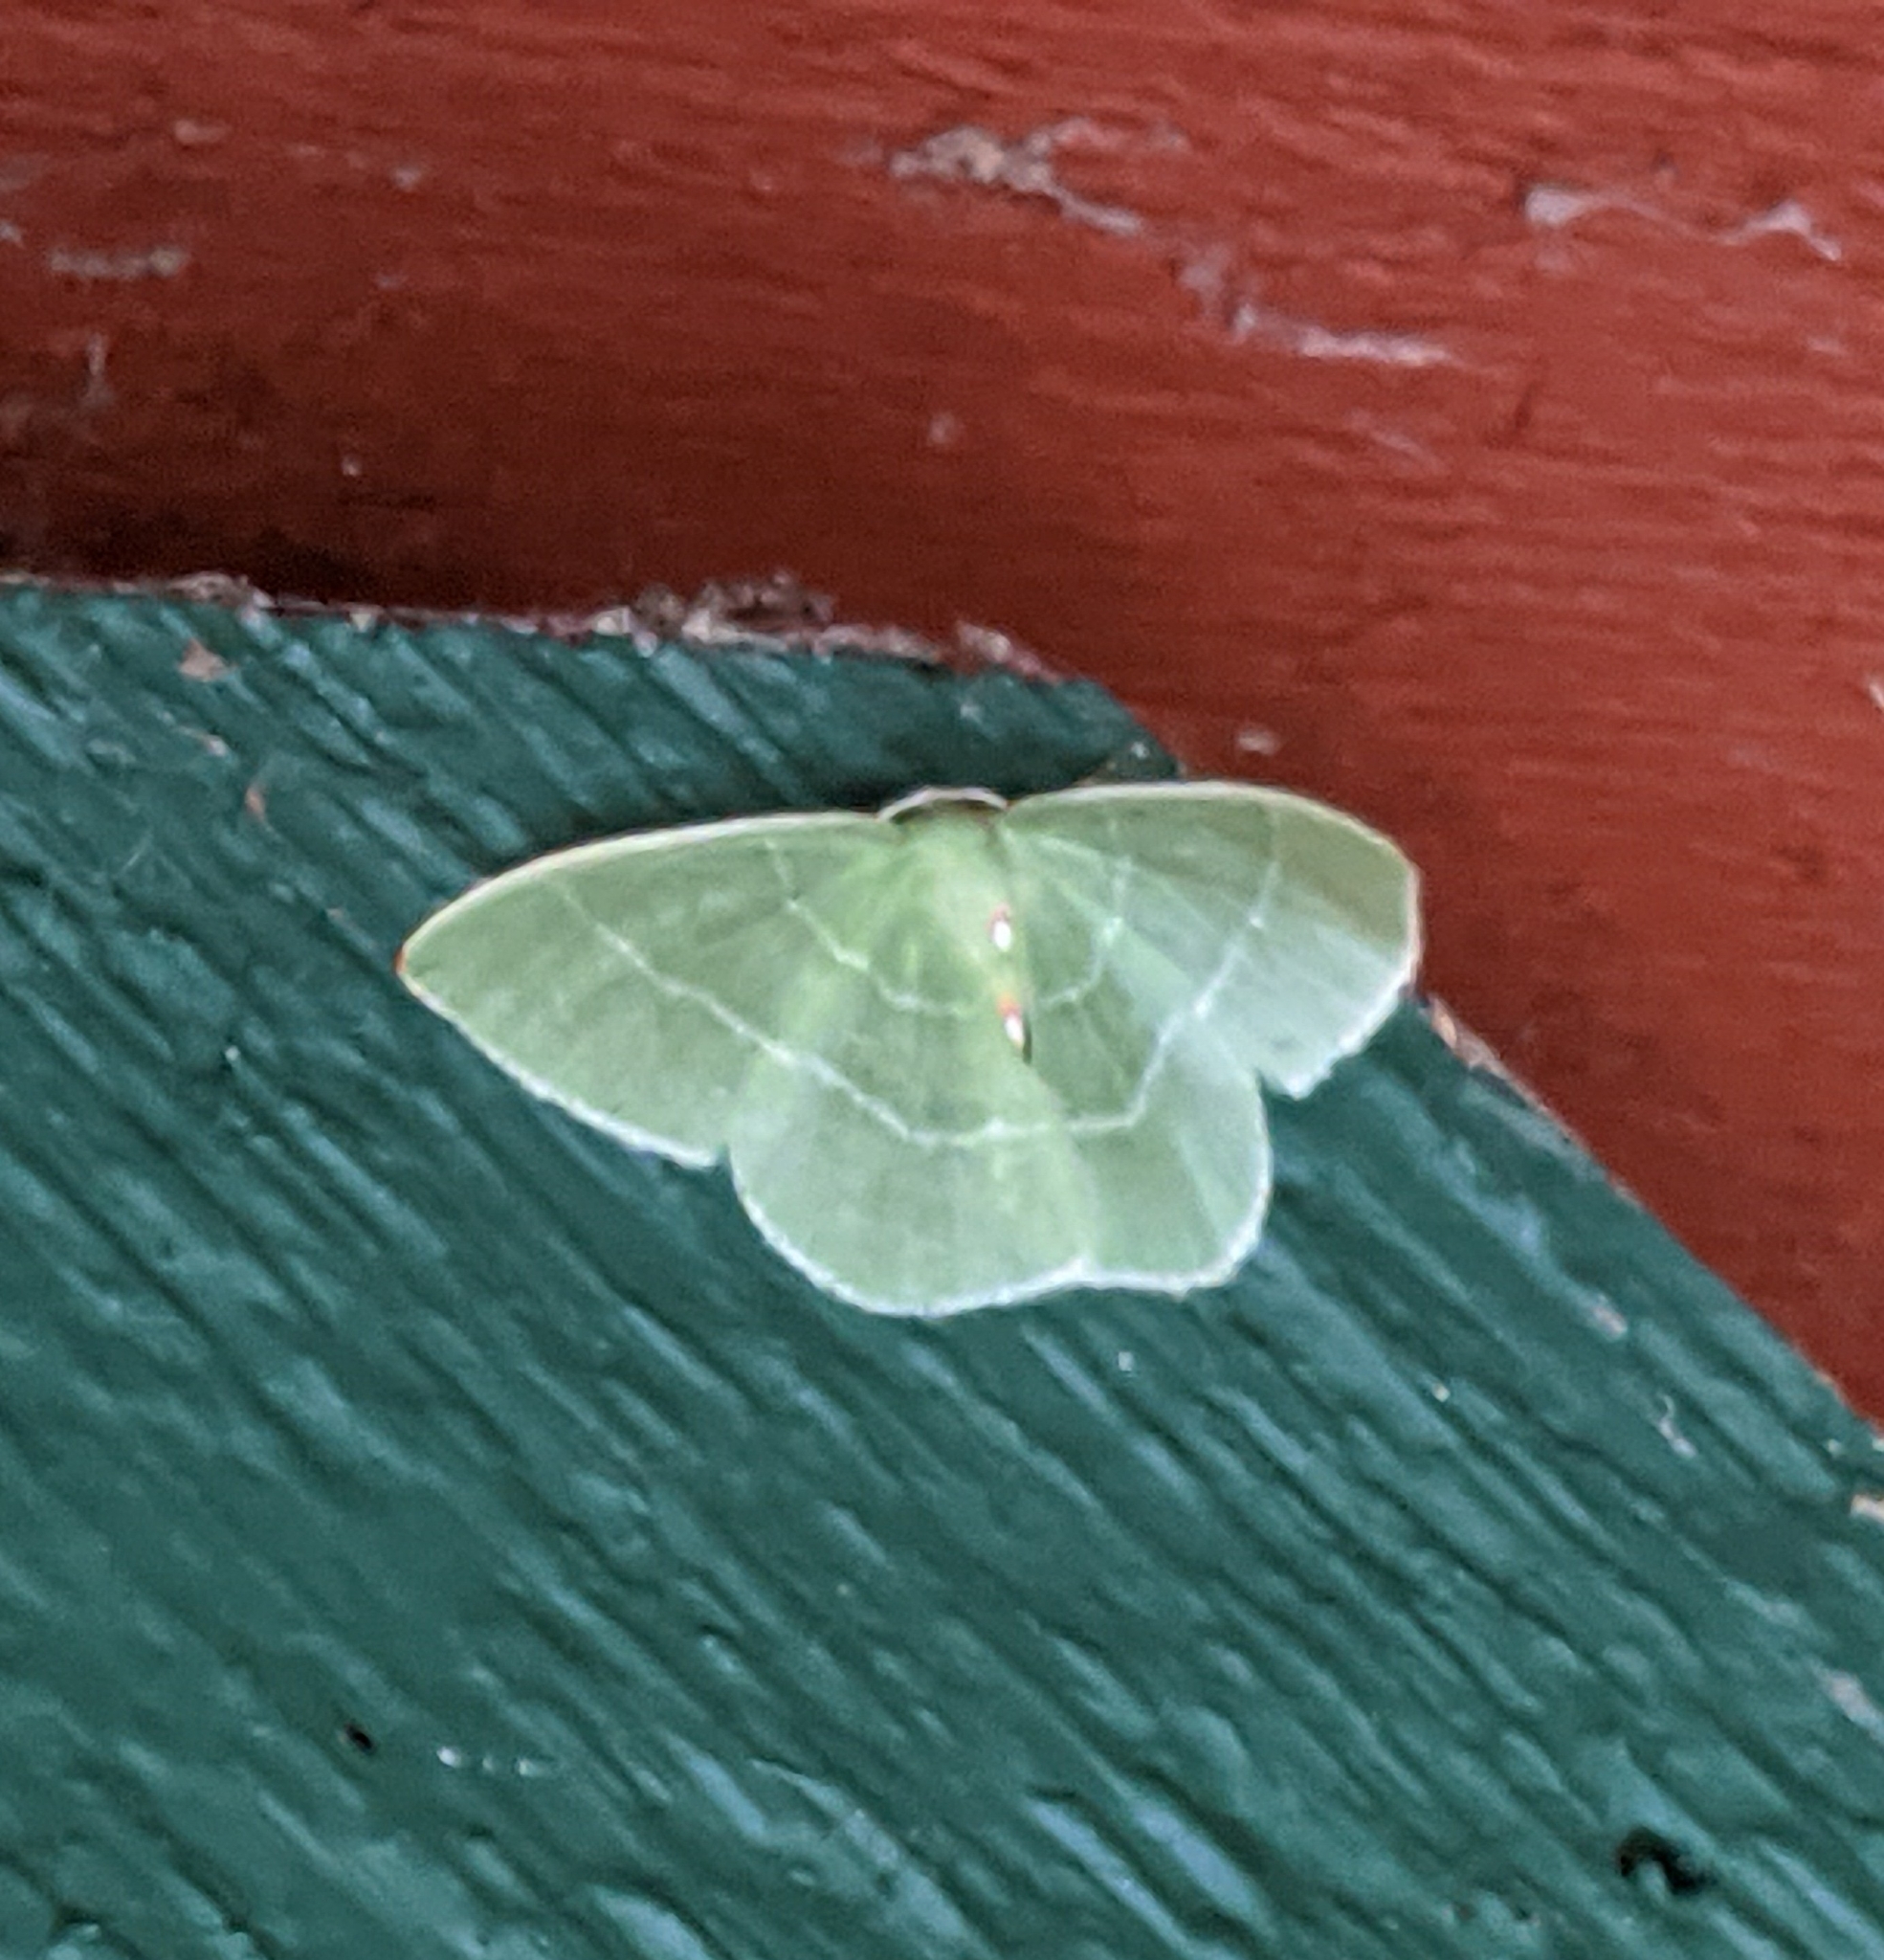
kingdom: Animalia
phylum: Arthropoda
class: Insecta
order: Lepidoptera
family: Geometridae
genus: Nemoria
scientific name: Nemoria darwiniata
